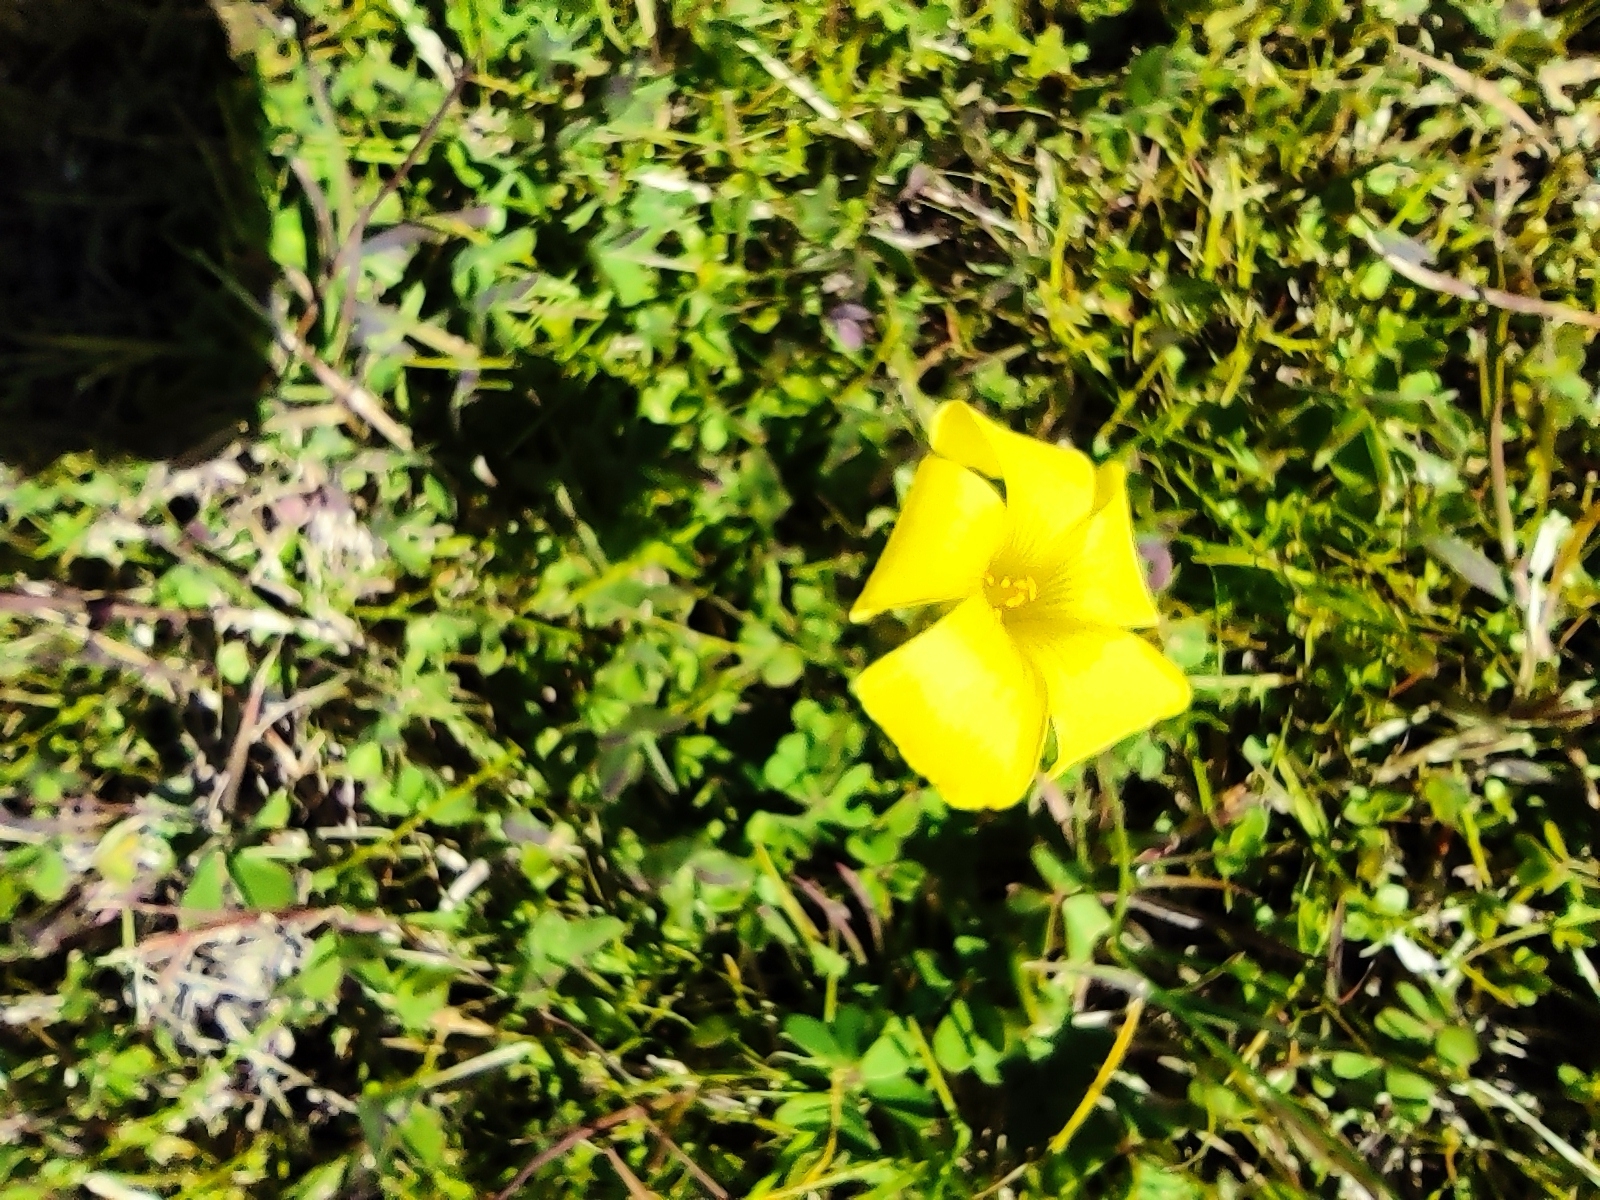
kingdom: Plantae
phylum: Tracheophyta
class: Magnoliopsida
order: Oxalidales
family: Oxalidaceae
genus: Oxalis
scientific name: Oxalis pes-caprae
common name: Bermuda-buttercup
